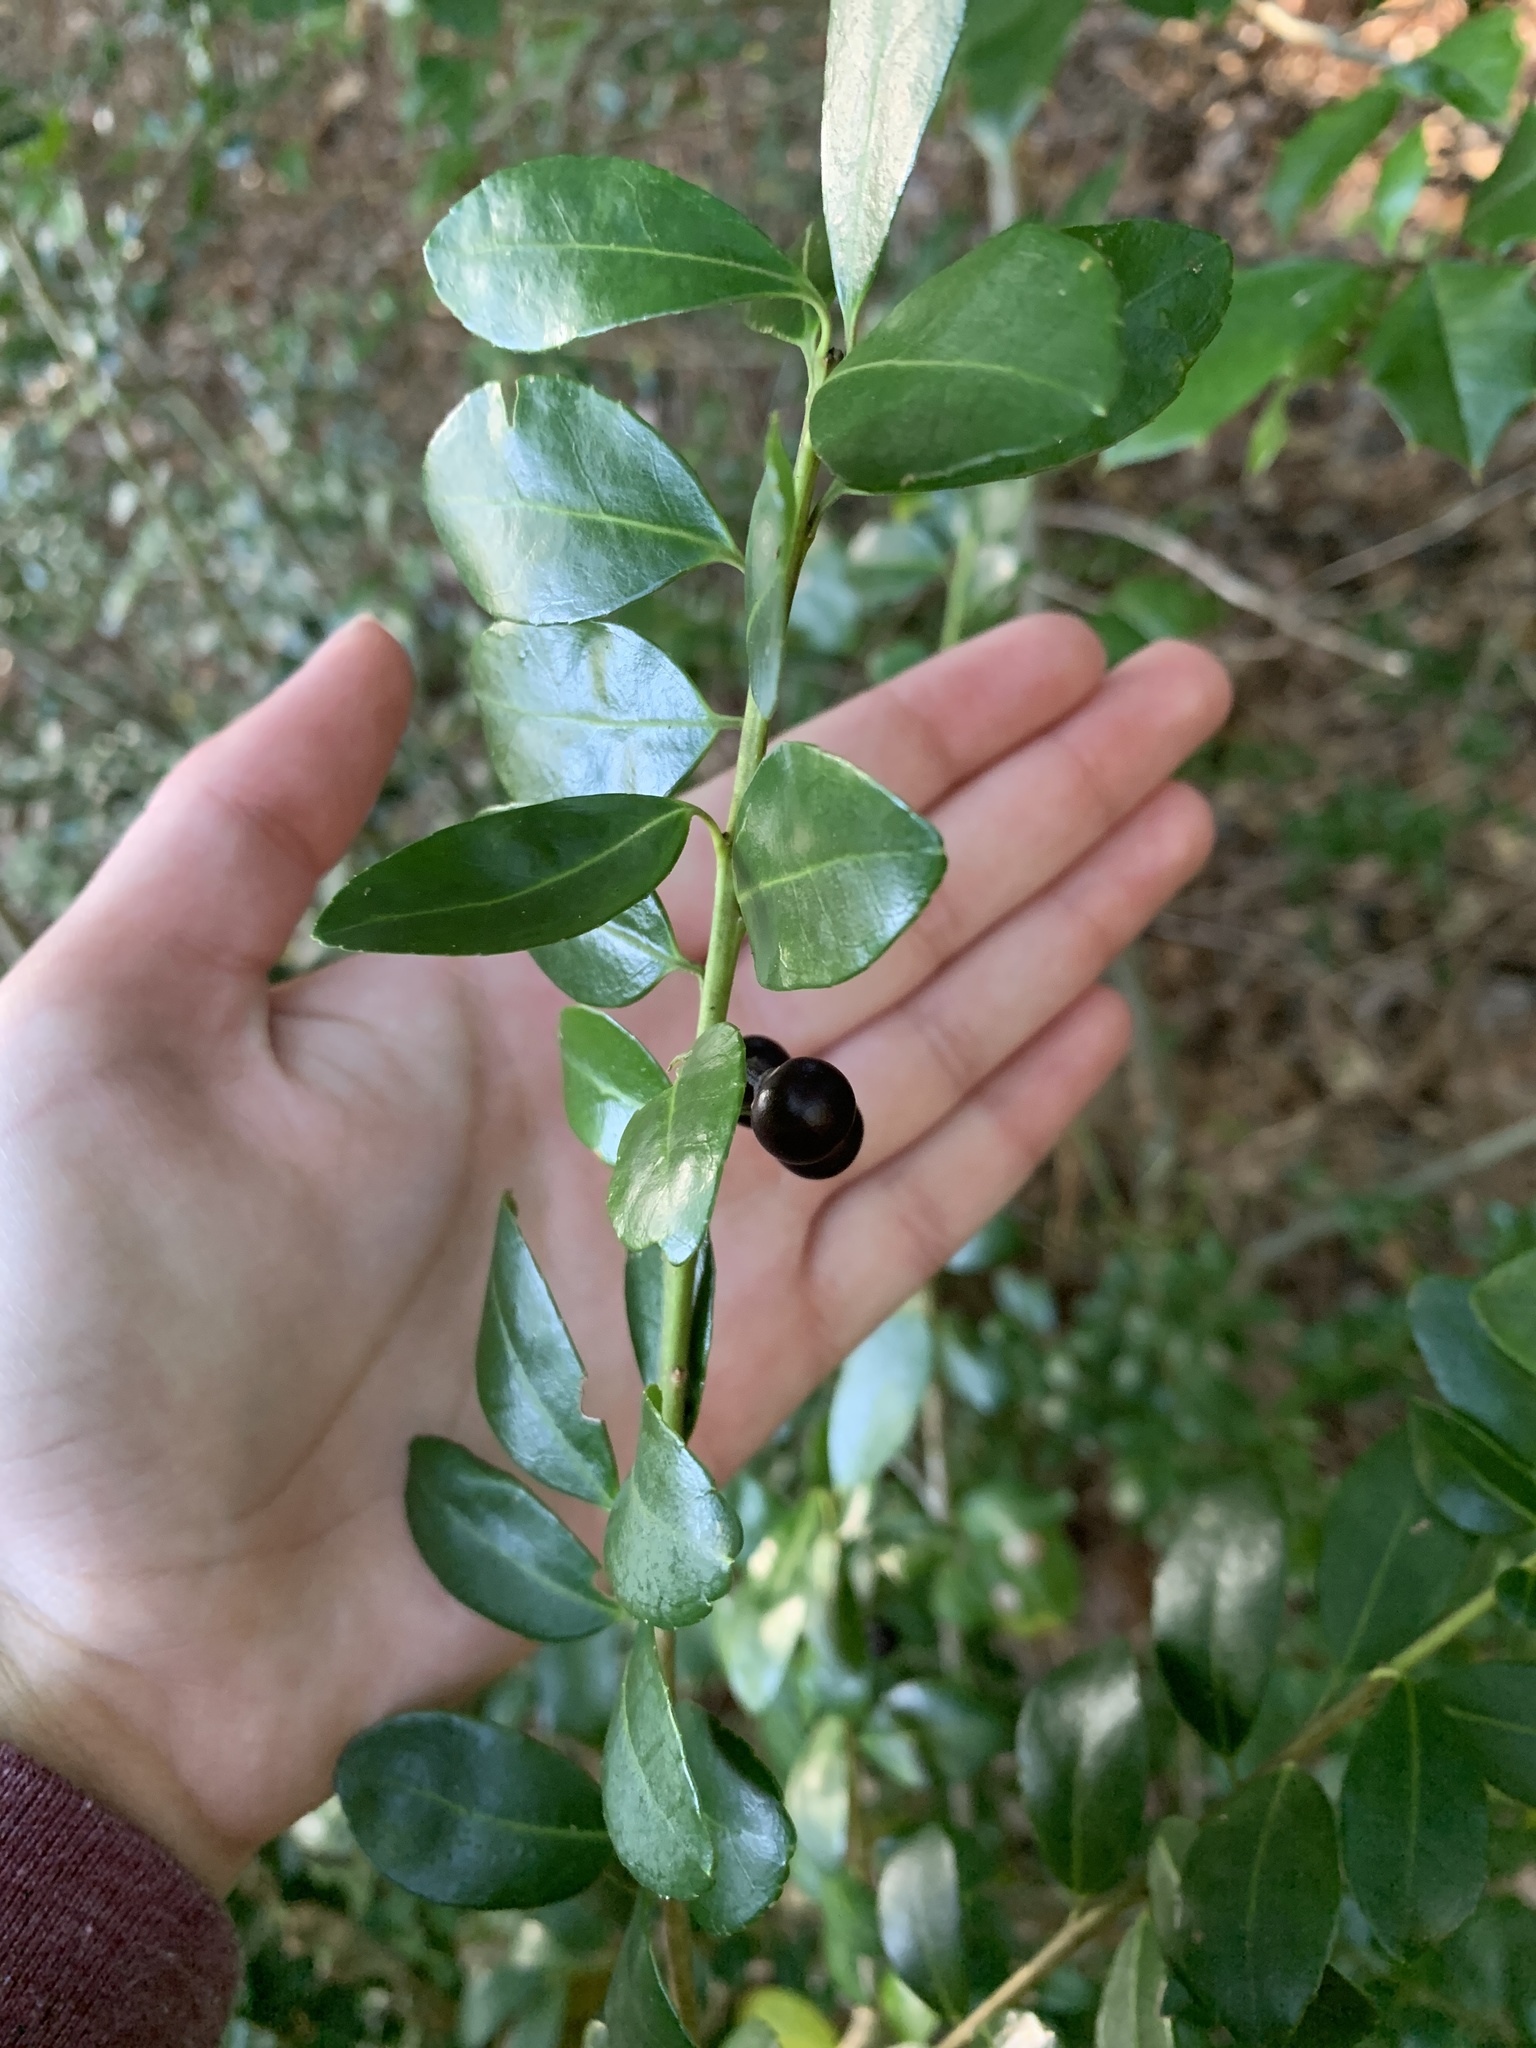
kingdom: Plantae
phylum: Tracheophyta
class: Magnoliopsida
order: Aquifoliales
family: Aquifoliaceae
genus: Ilex
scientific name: Ilex crenata
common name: Japanese holly
